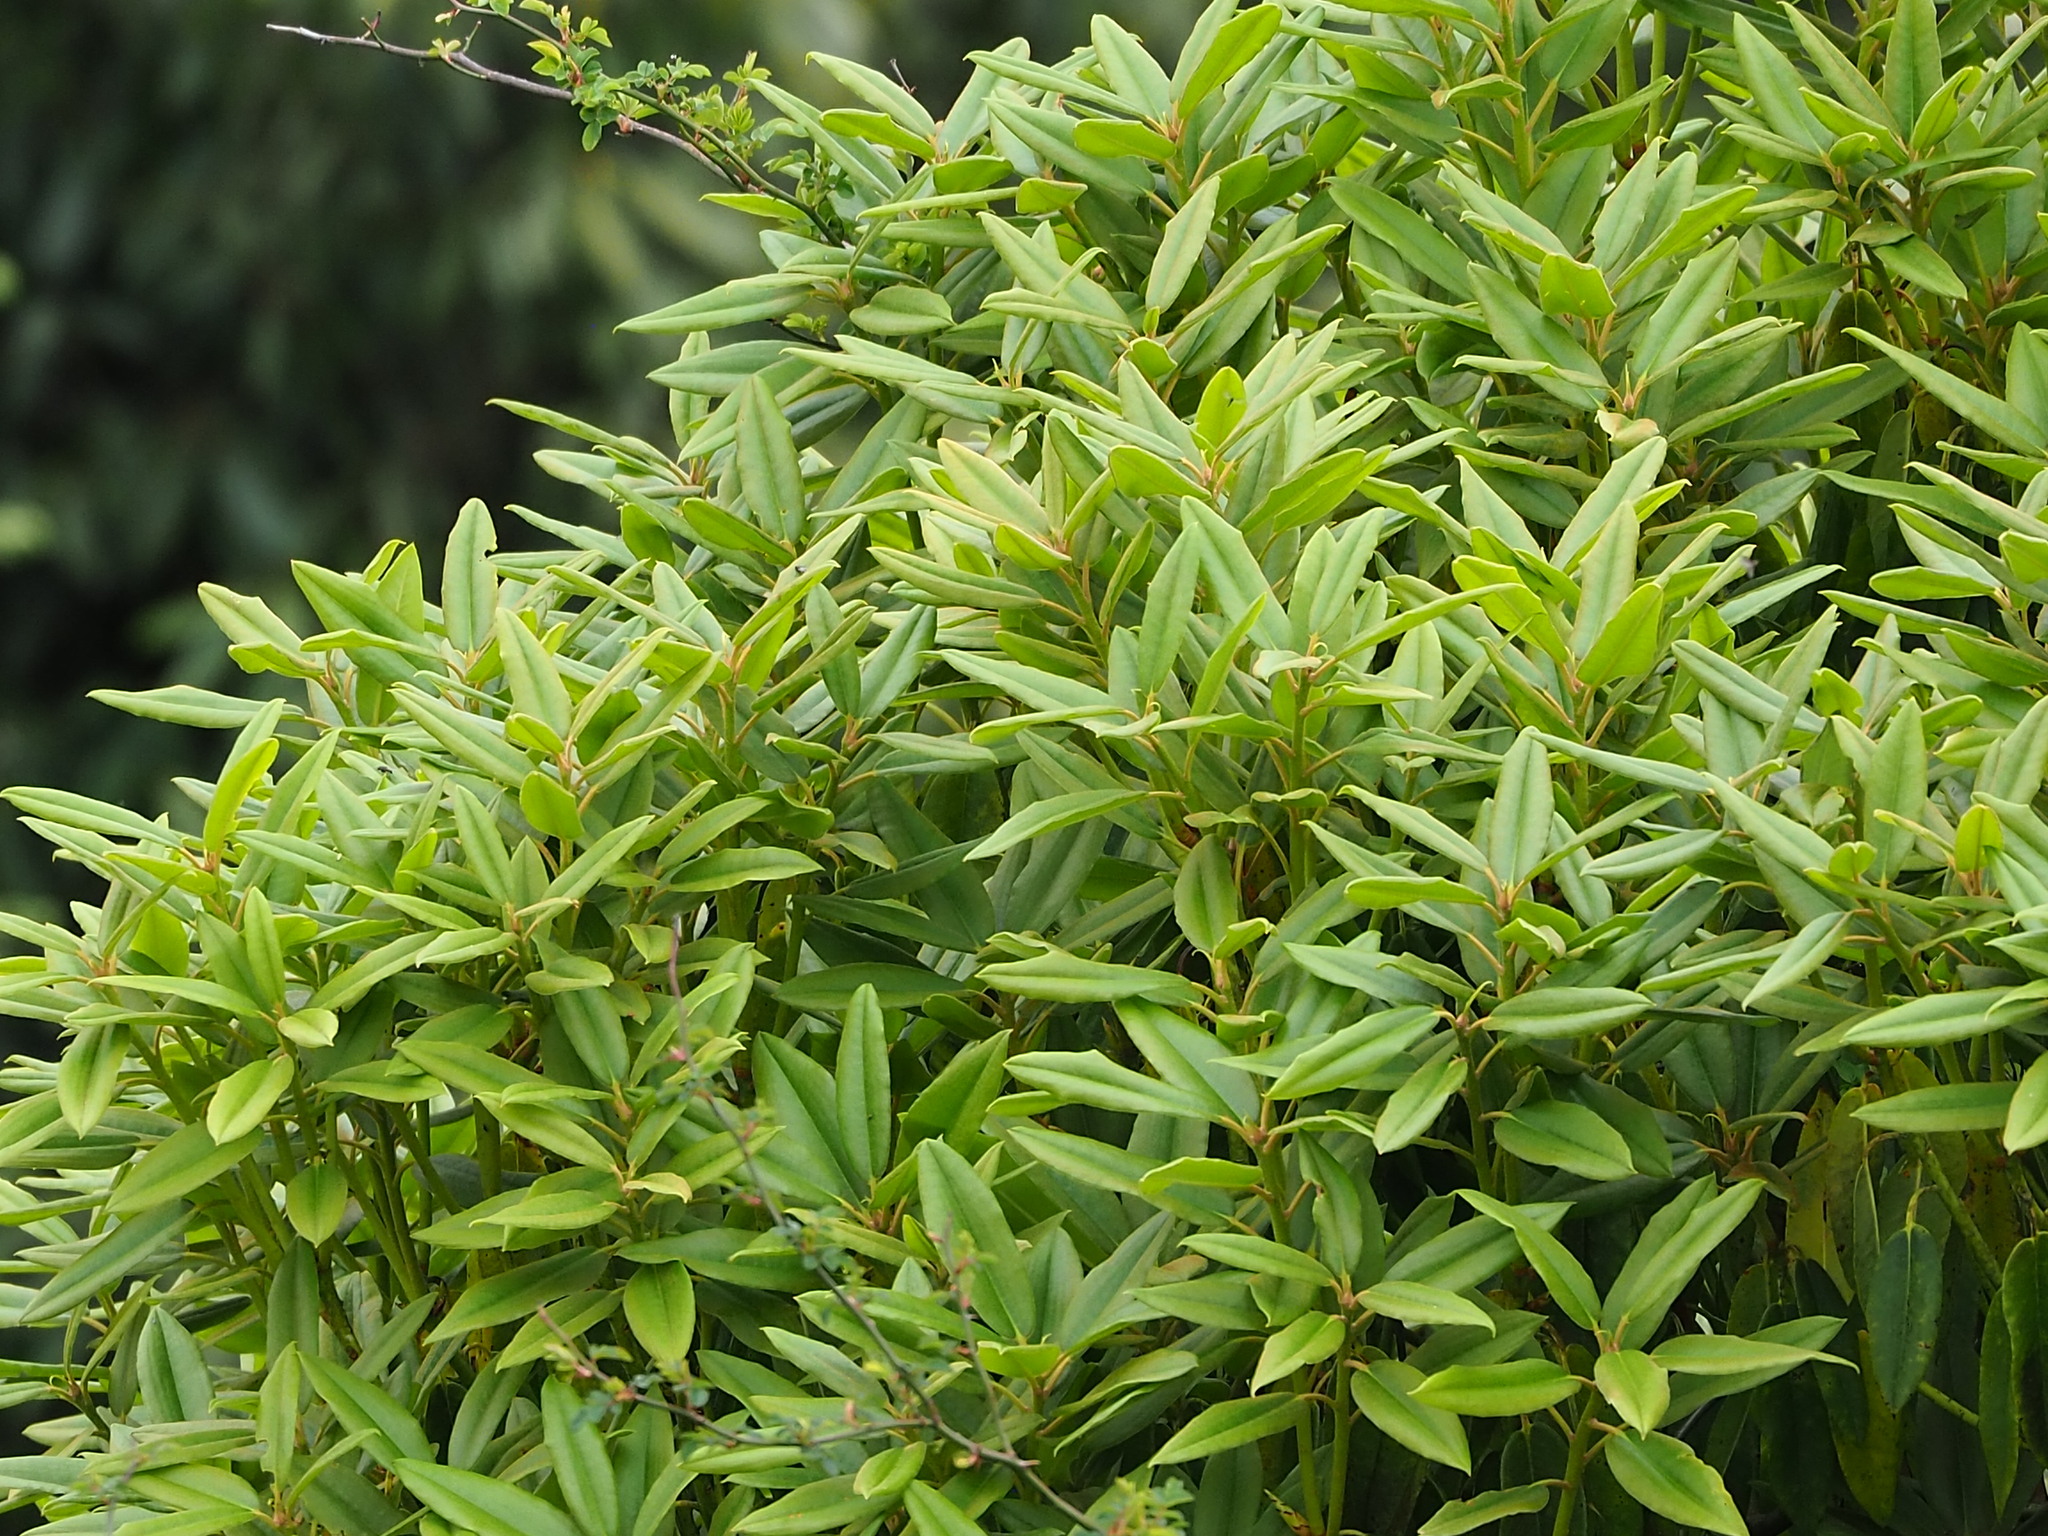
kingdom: Plantae
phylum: Tracheophyta
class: Magnoliopsida
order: Ericales
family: Ericaceae
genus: Rhododendron
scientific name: Rhododendron pseudochrysanthum
